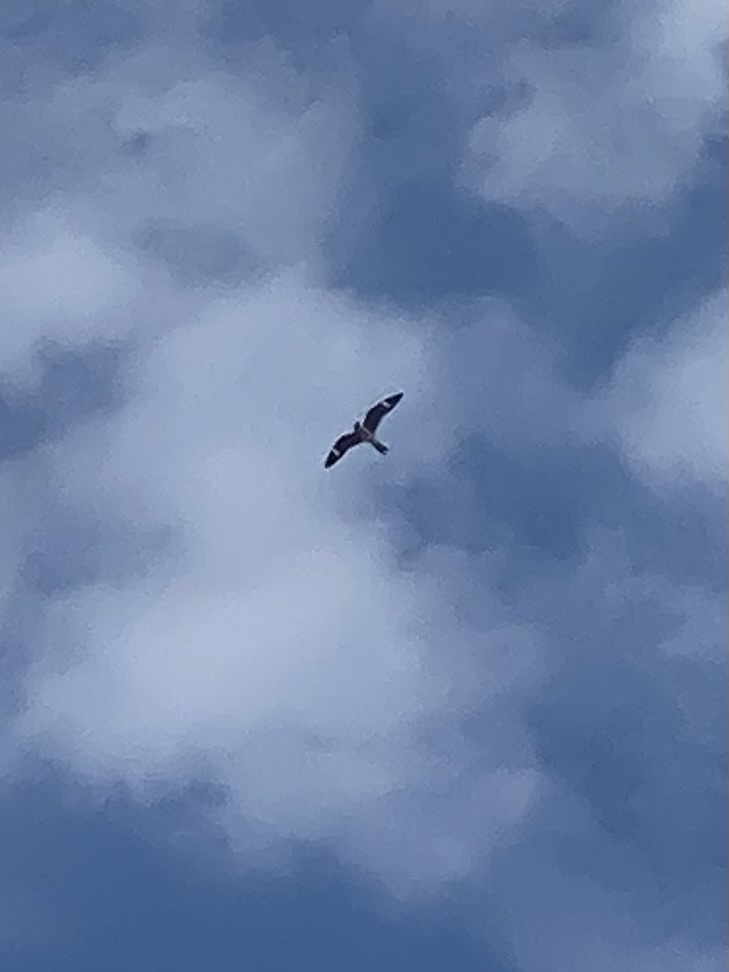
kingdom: Animalia
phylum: Chordata
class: Aves
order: Caprimulgiformes
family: Caprimulgidae
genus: Chordeiles
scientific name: Chordeiles minor
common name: Common nighthawk
